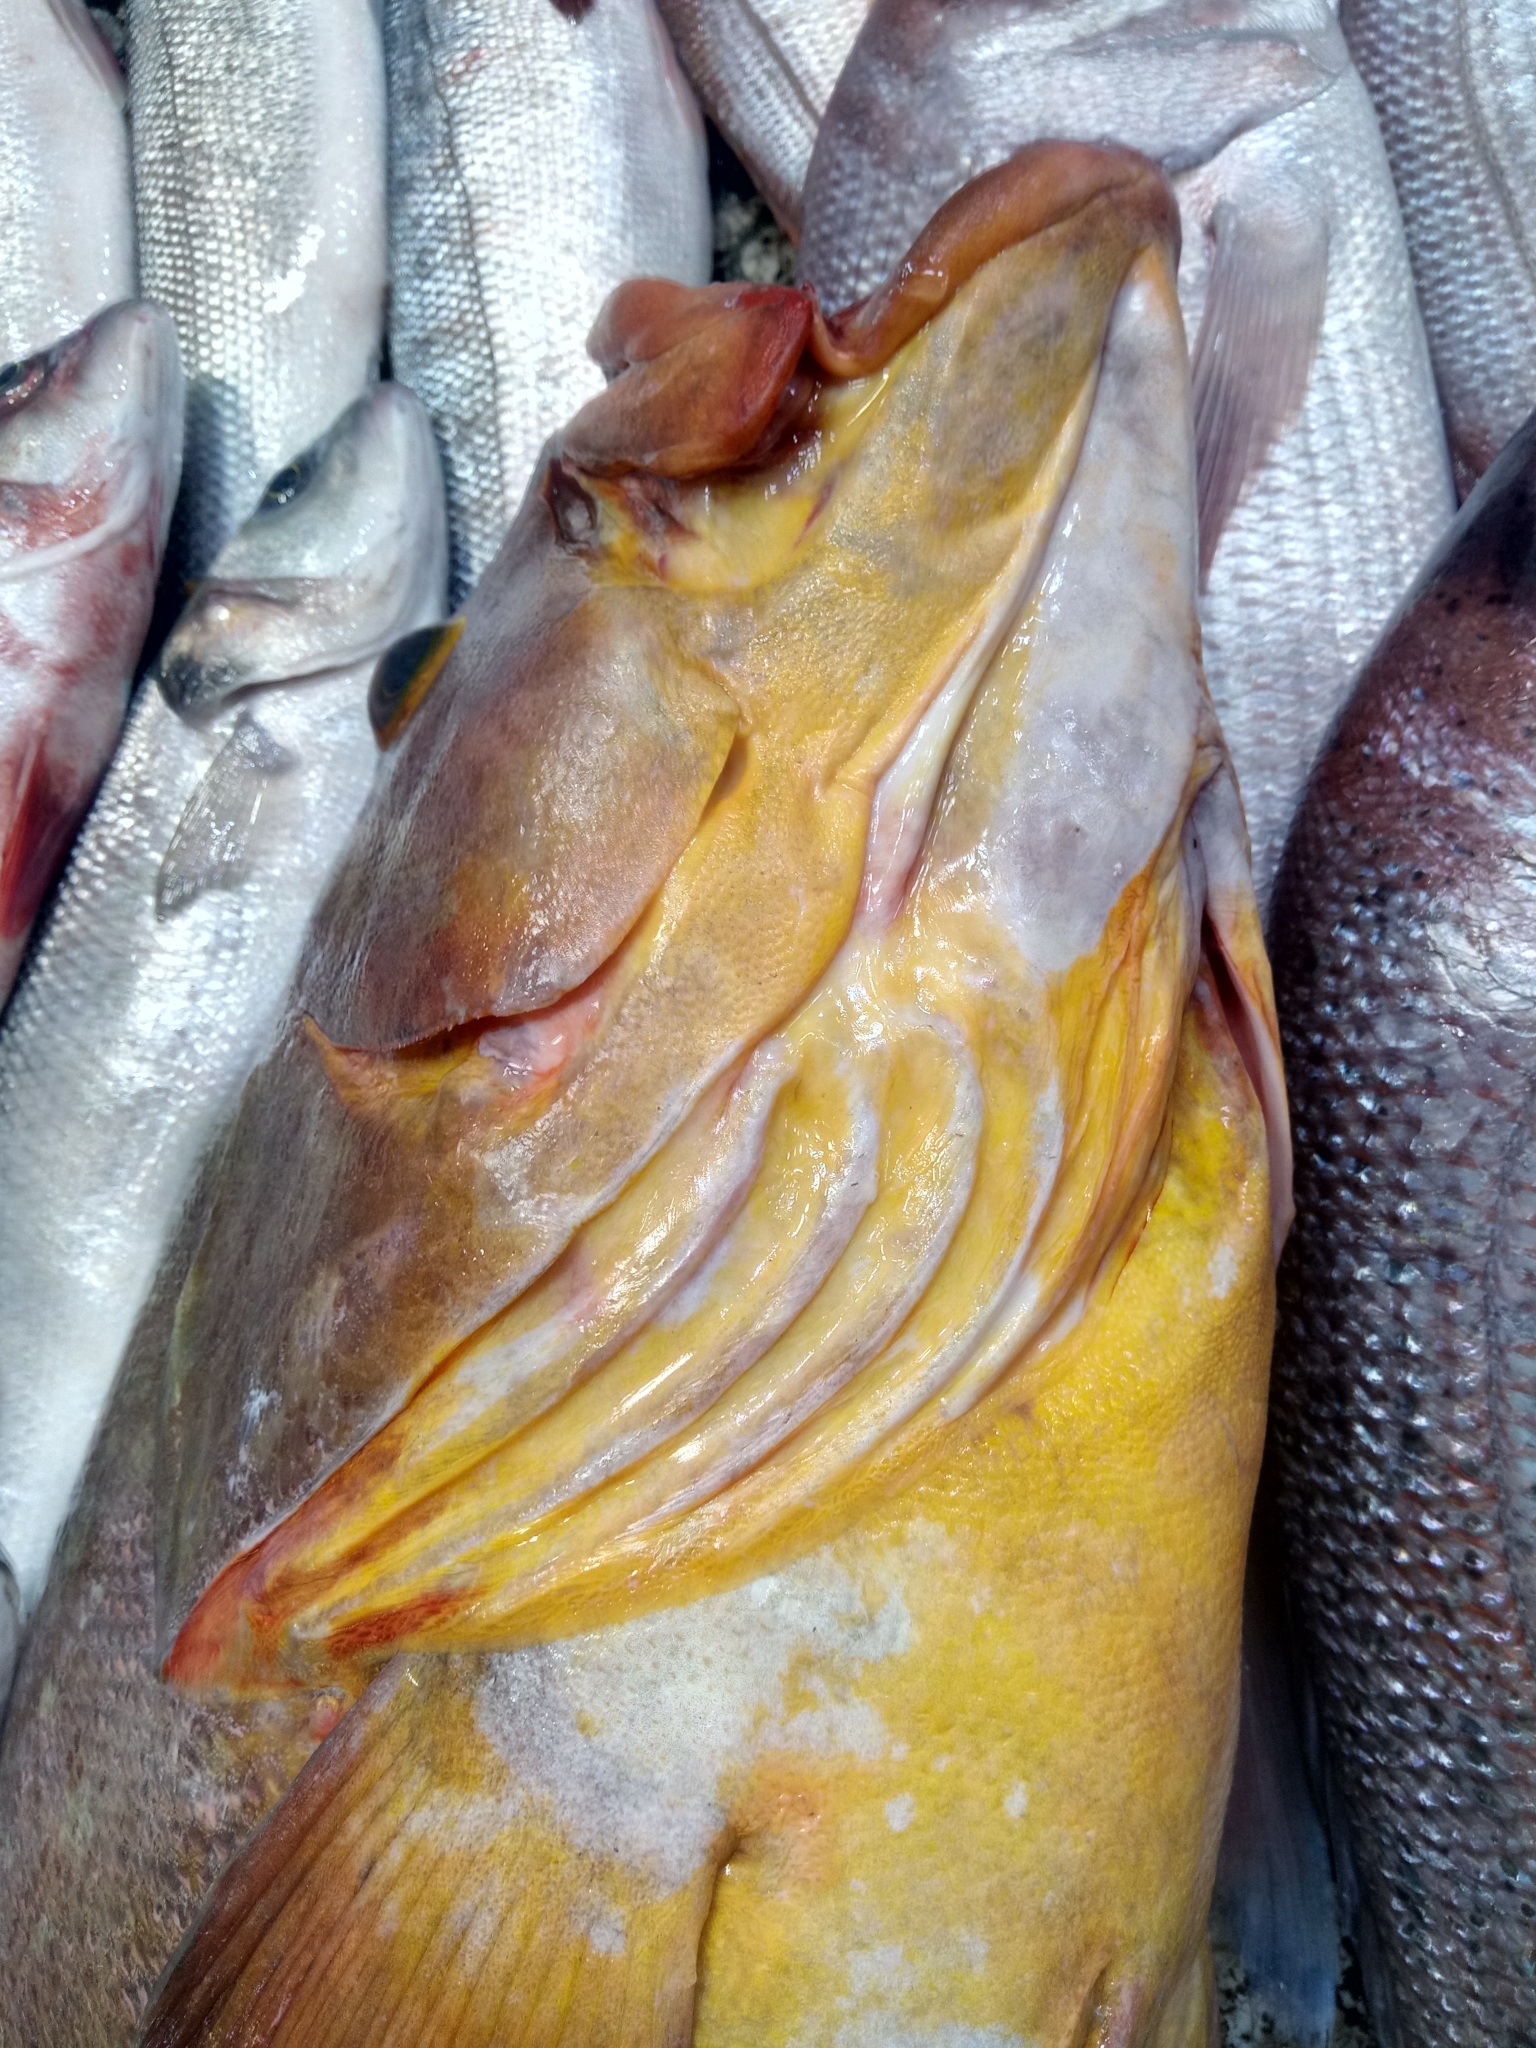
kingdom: Animalia
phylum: Chordata
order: Perciformes
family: Serranidae
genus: Epinephelus
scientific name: Epinephelus marginatus
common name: Dusky grouper
